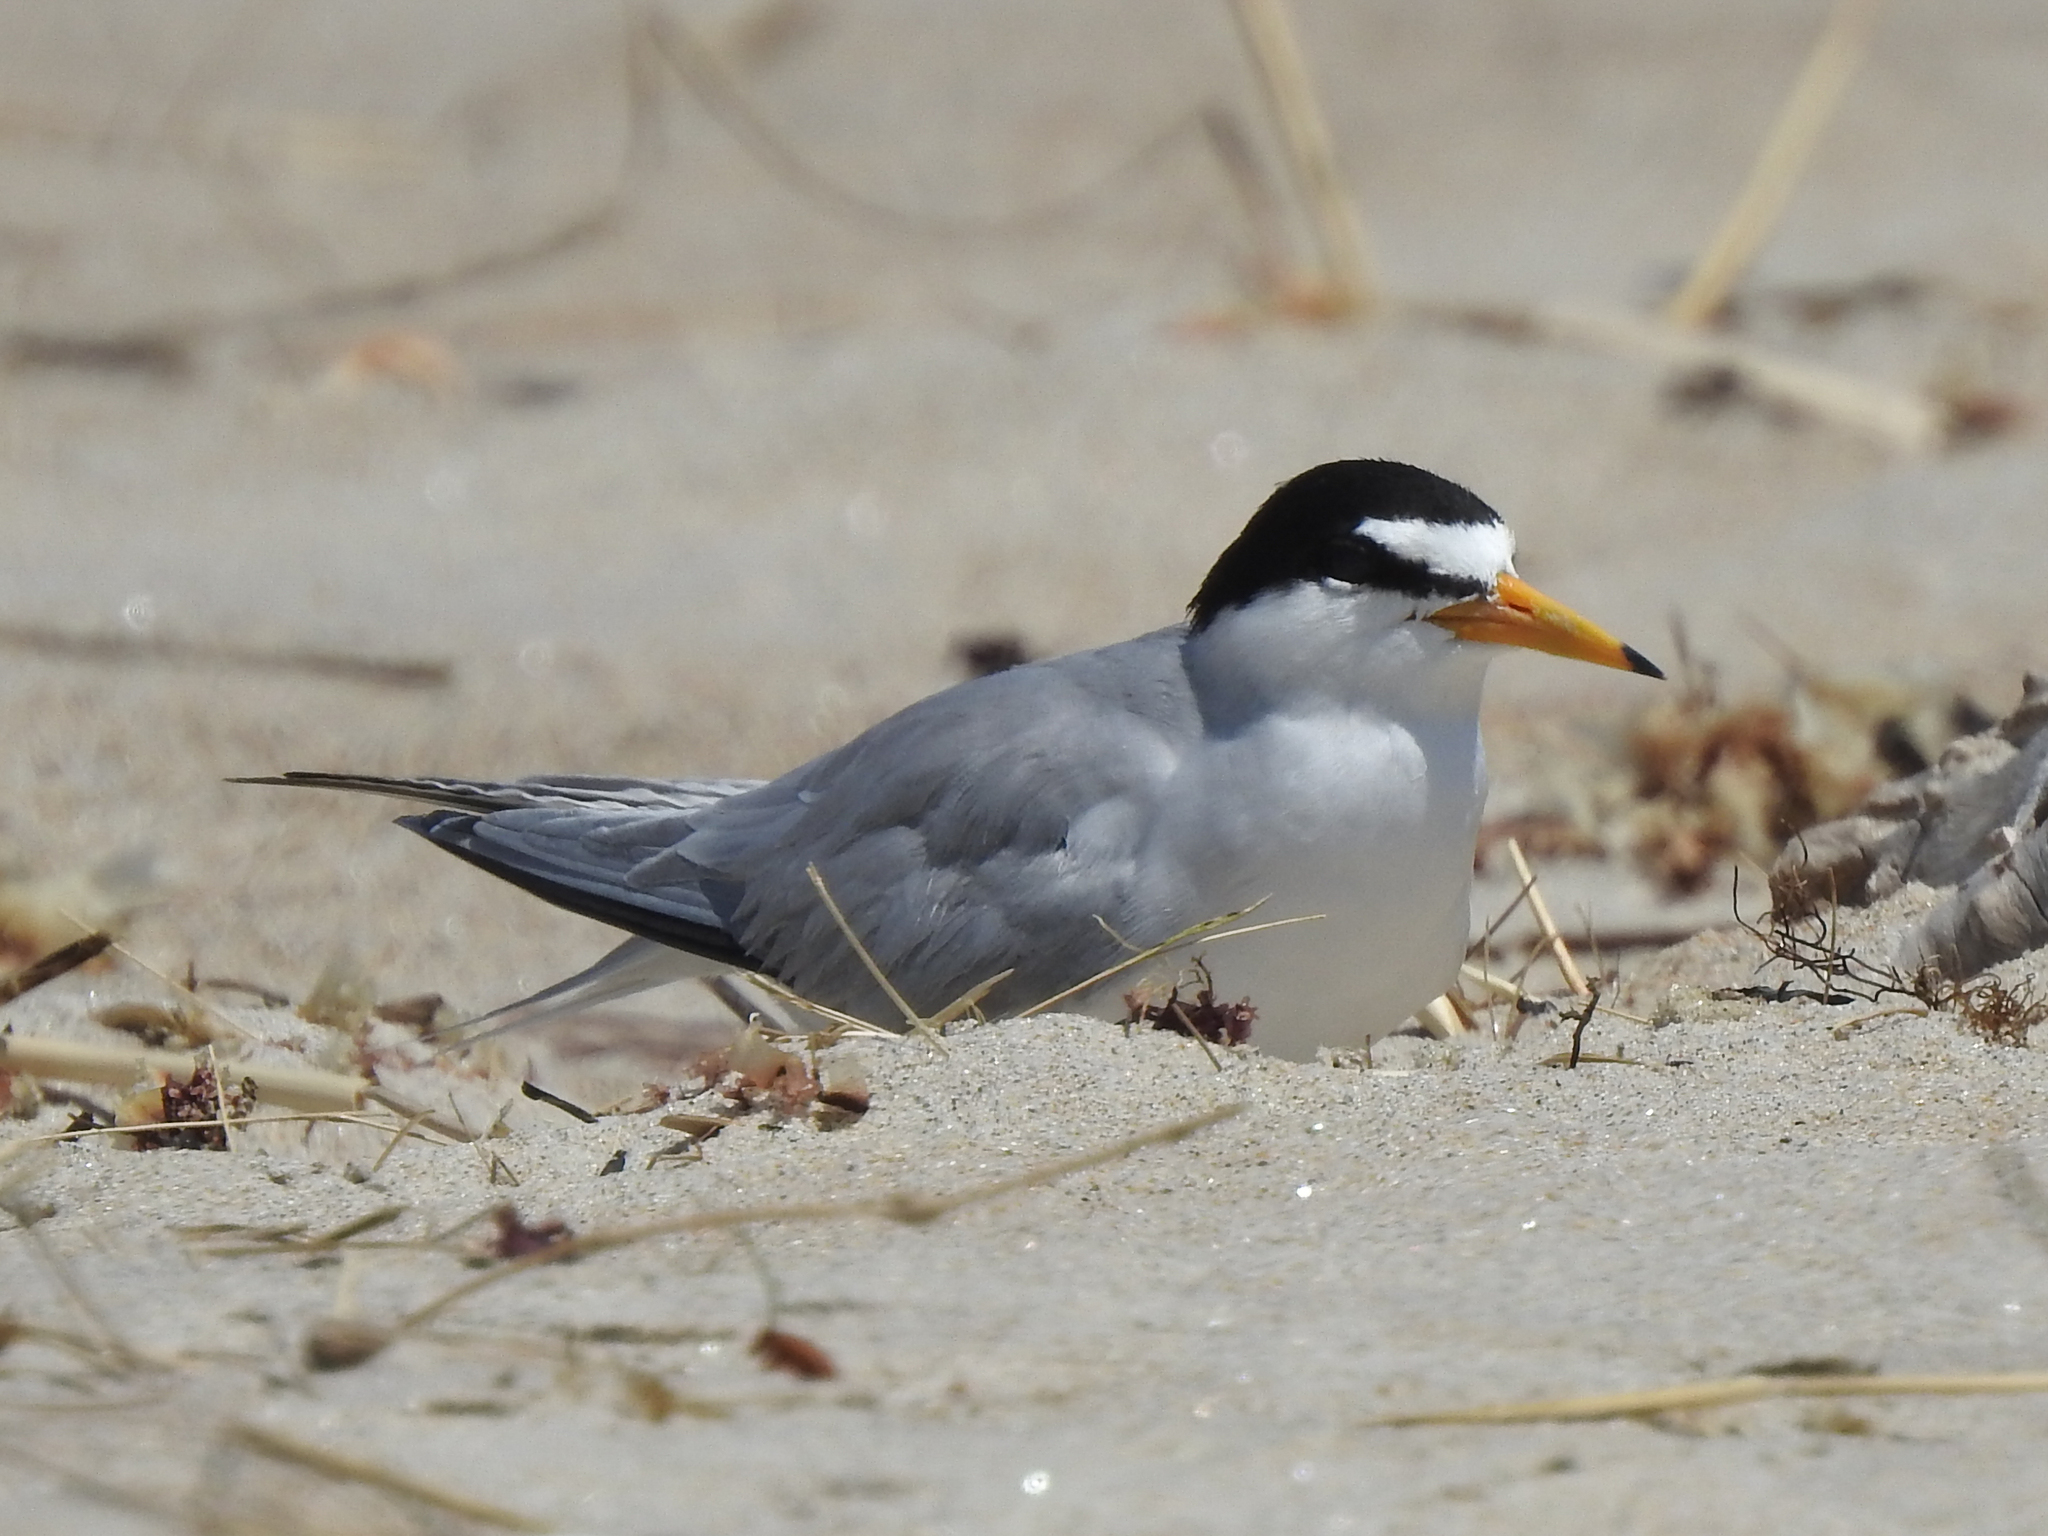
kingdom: Animalia
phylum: Chordata
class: Aves
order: Charadriiformes
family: Laridae
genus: Sternula
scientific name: Sternula antillarum
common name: Least tern
